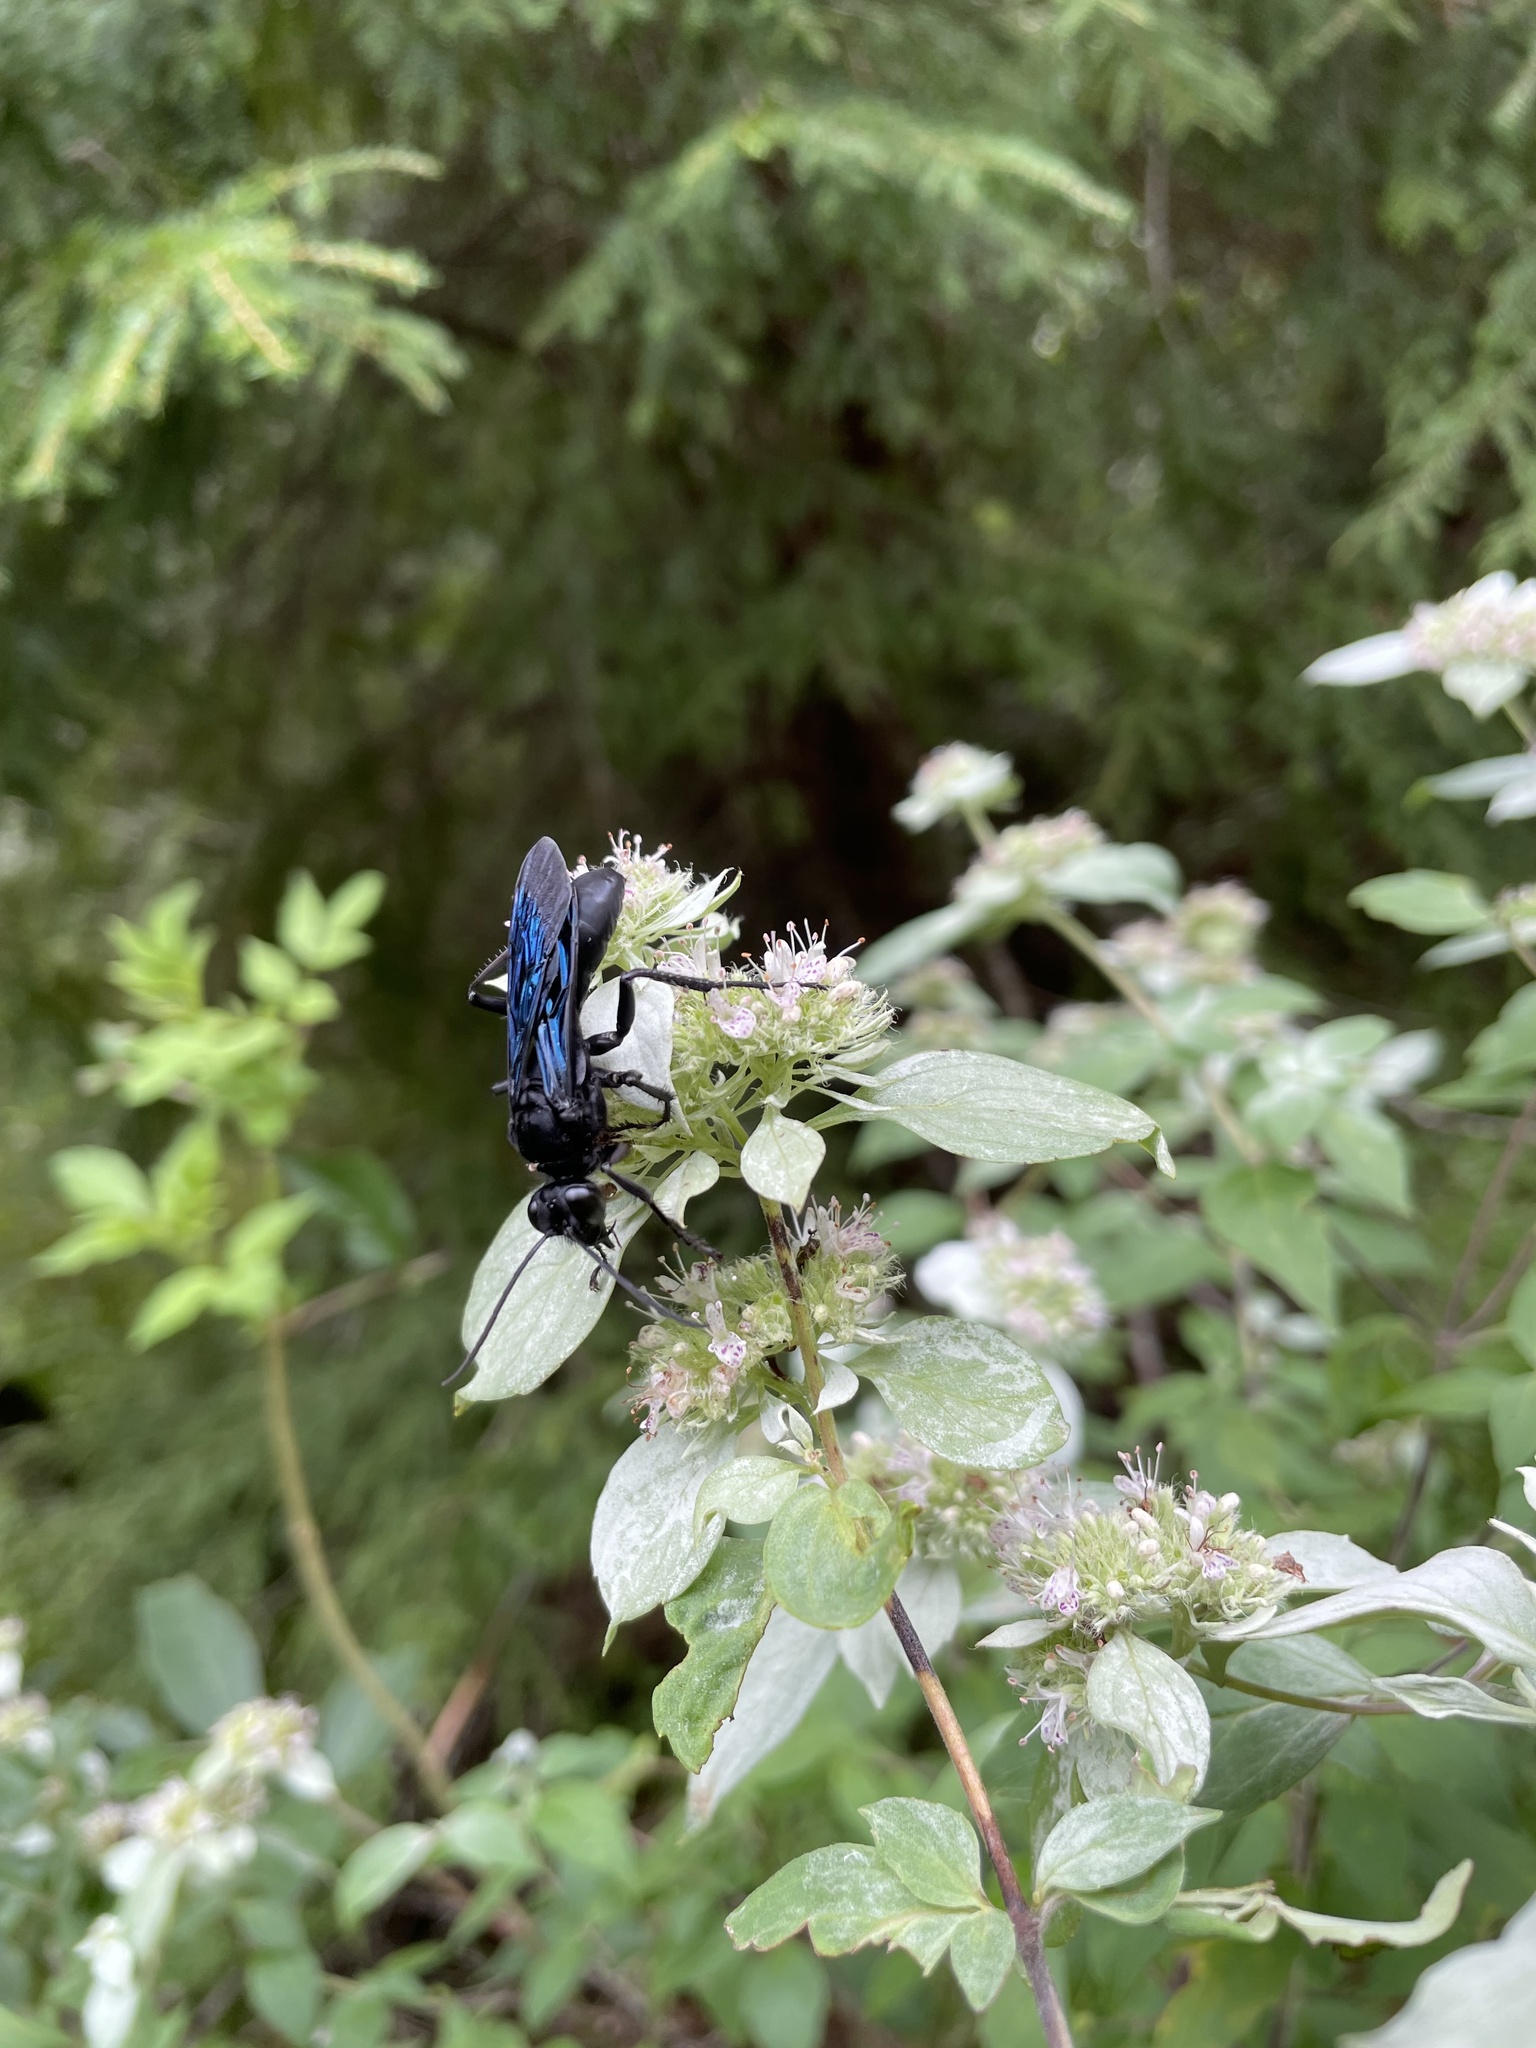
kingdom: Animalia
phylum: Arthropoda
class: Insecta
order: Hymenoptera
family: Sphecidae
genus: Sphex
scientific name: Sphex pensylvanicus
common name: Great black digger wasp
